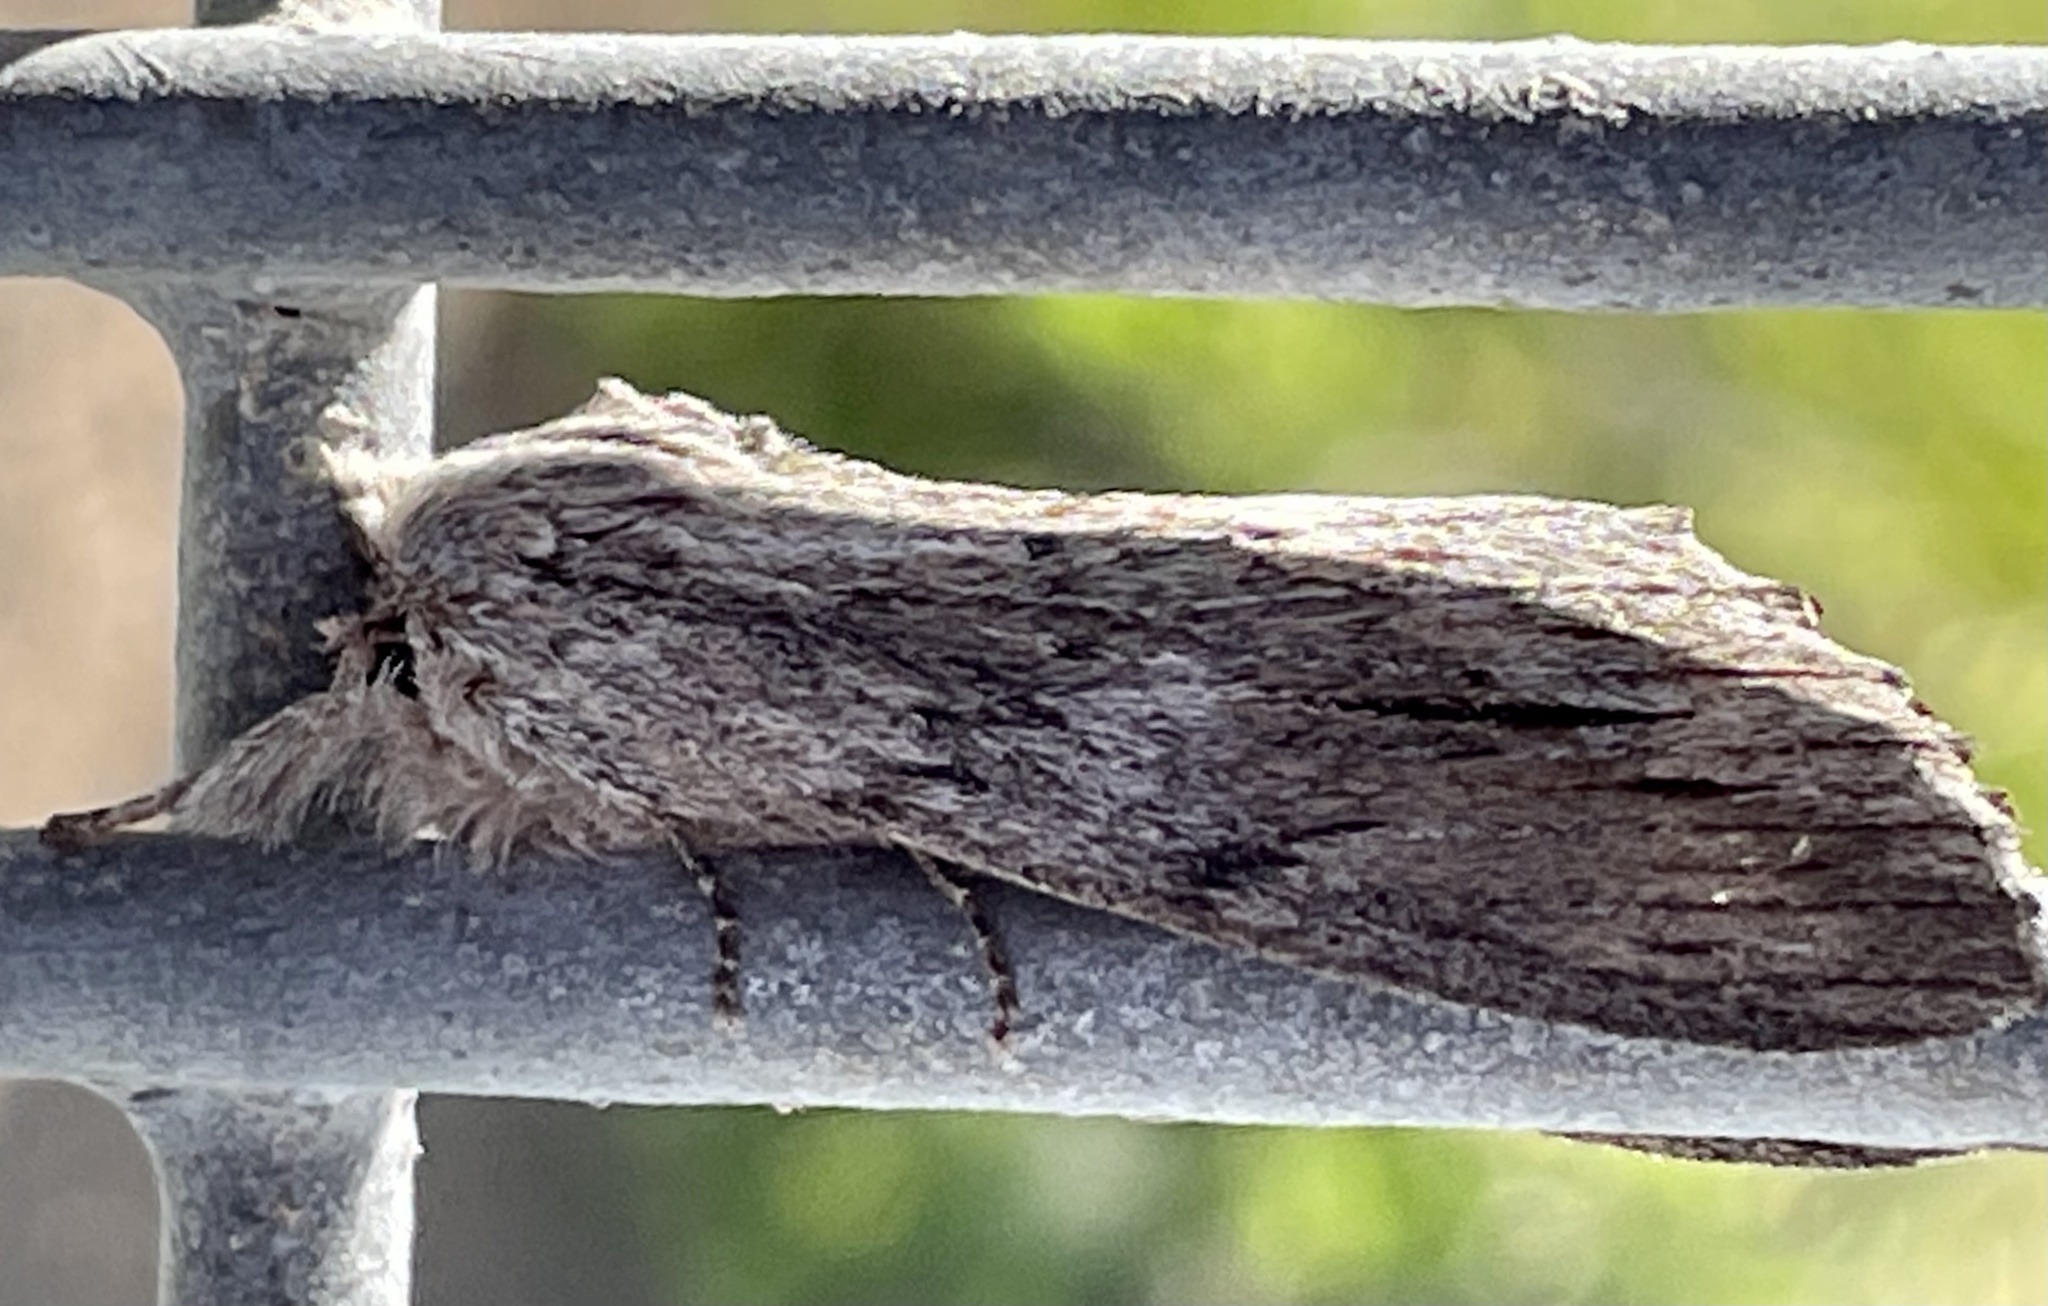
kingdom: Animalia
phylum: Arthropoda
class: Insecta
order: Lepidoptera
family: Notodontidae
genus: Destolmia
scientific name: Destolmia lineata
